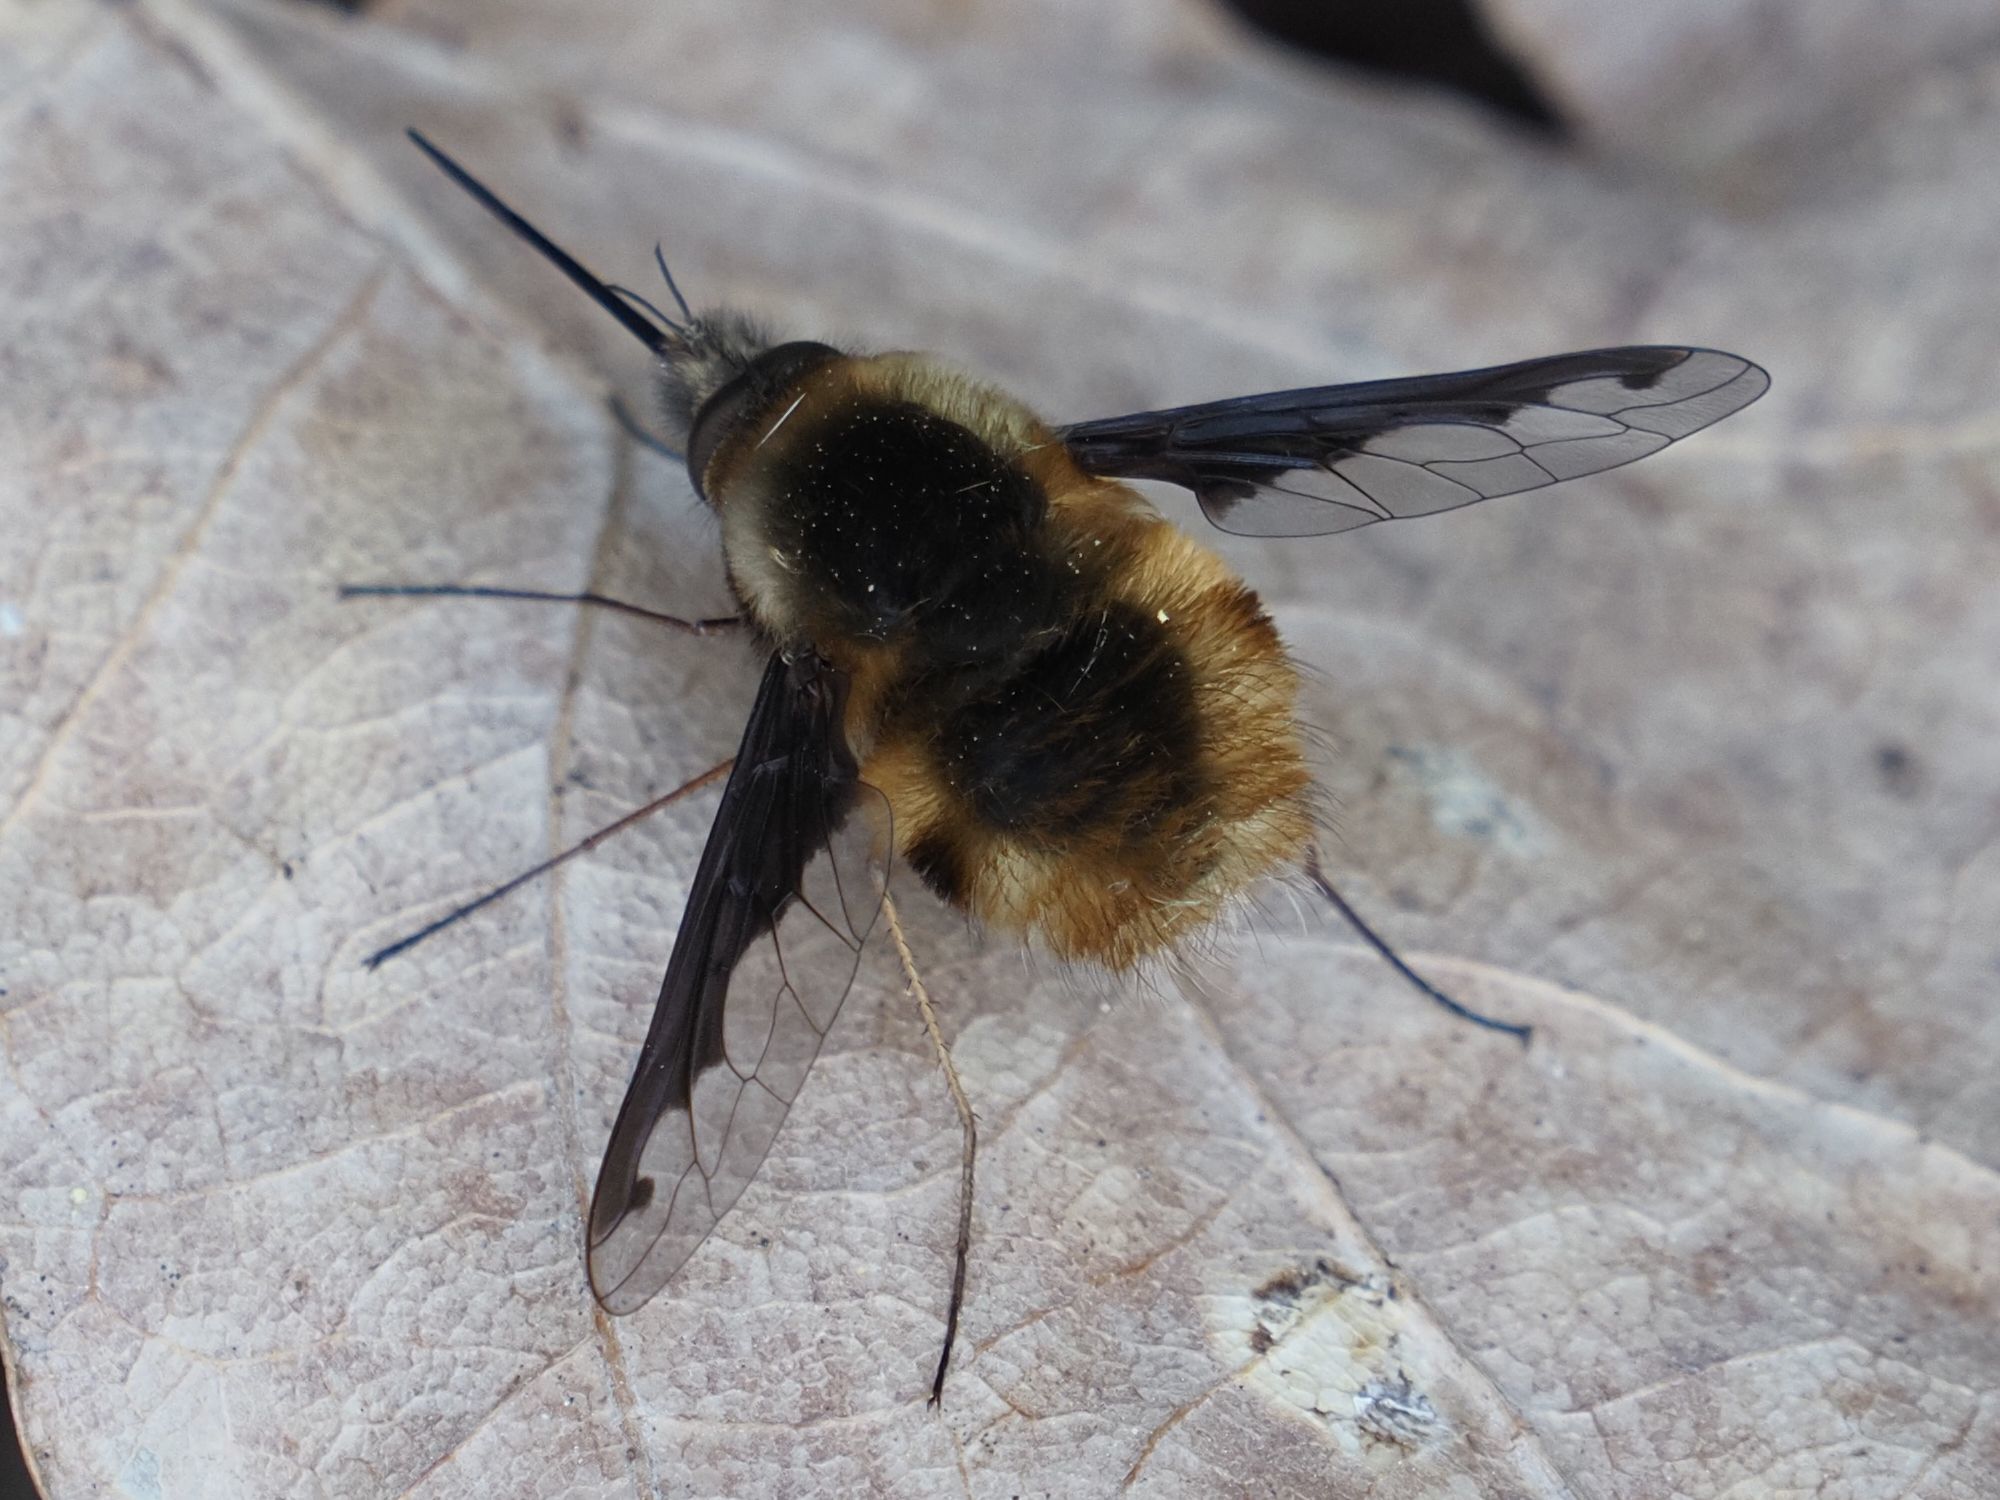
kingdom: Animalia
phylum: Arthropoda
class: Insecta
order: Diptera
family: Bombyliidae
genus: Bombylius
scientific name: Bombylius major
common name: Bee fly
